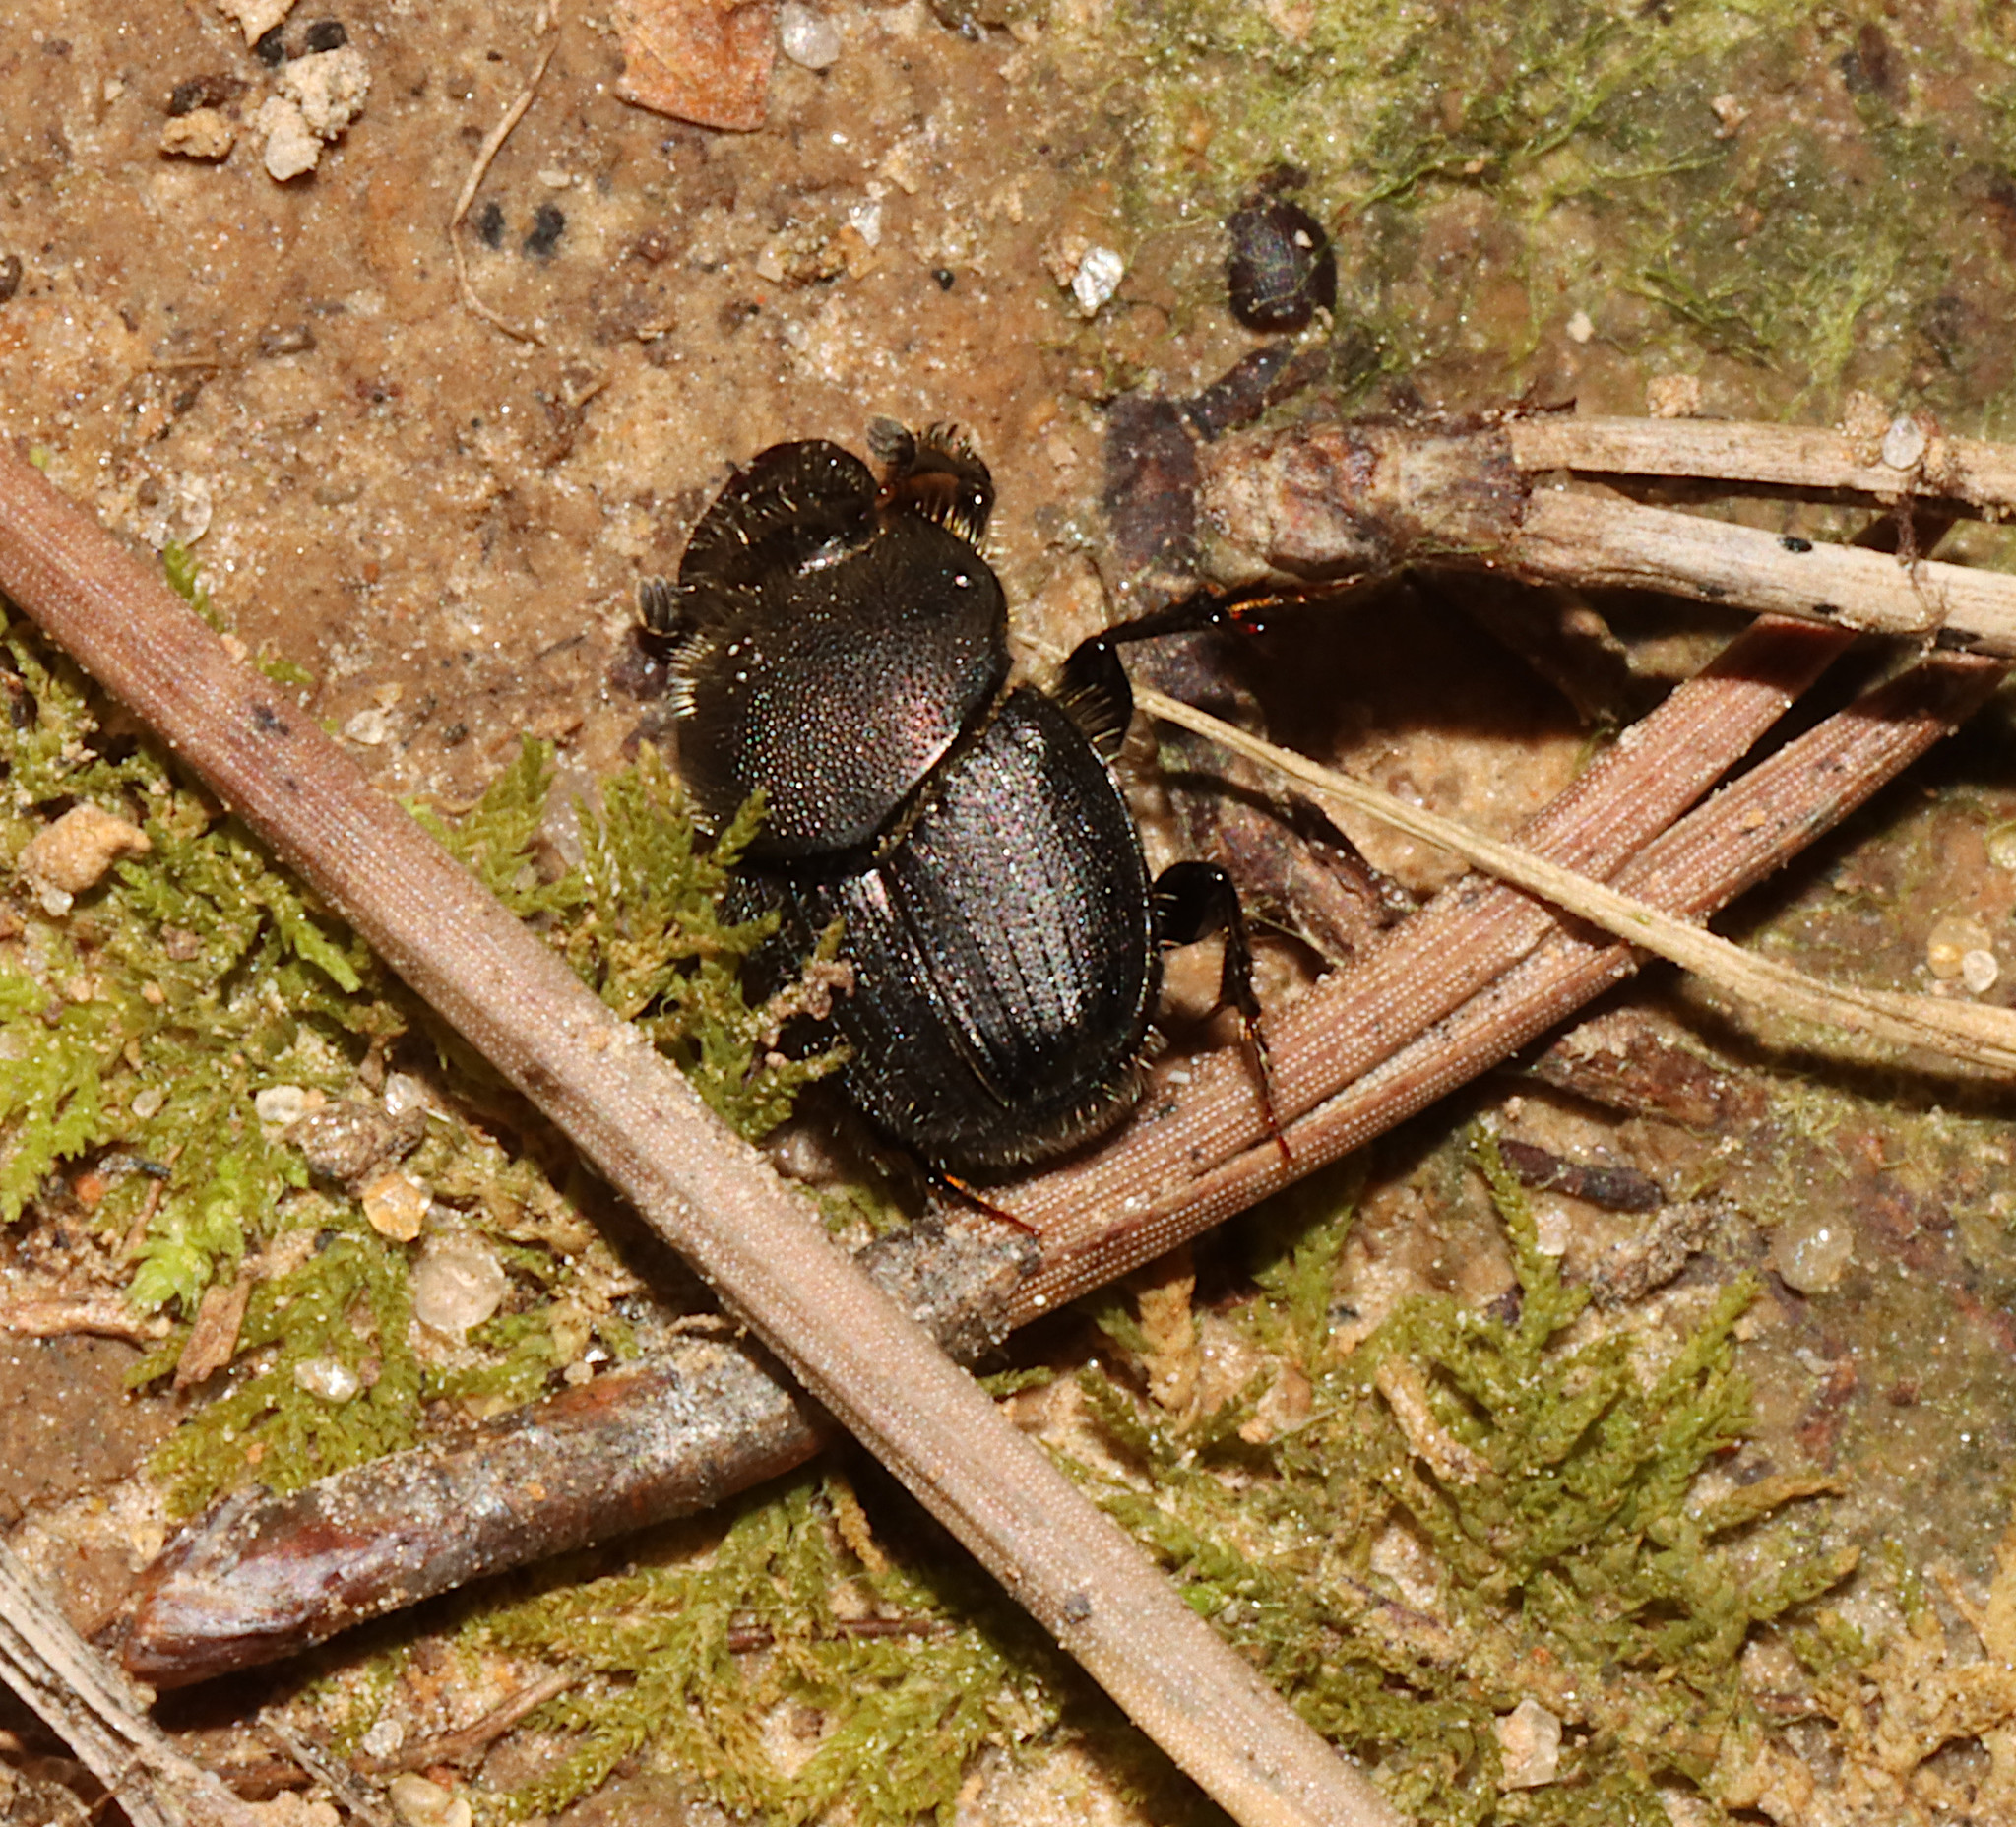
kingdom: Animalia
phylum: Arthropoda
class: Insecta
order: Coleoptera
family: Scarabaeidae
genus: Onthophagus
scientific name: Onthophagus hecate
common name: Scooped scarab
